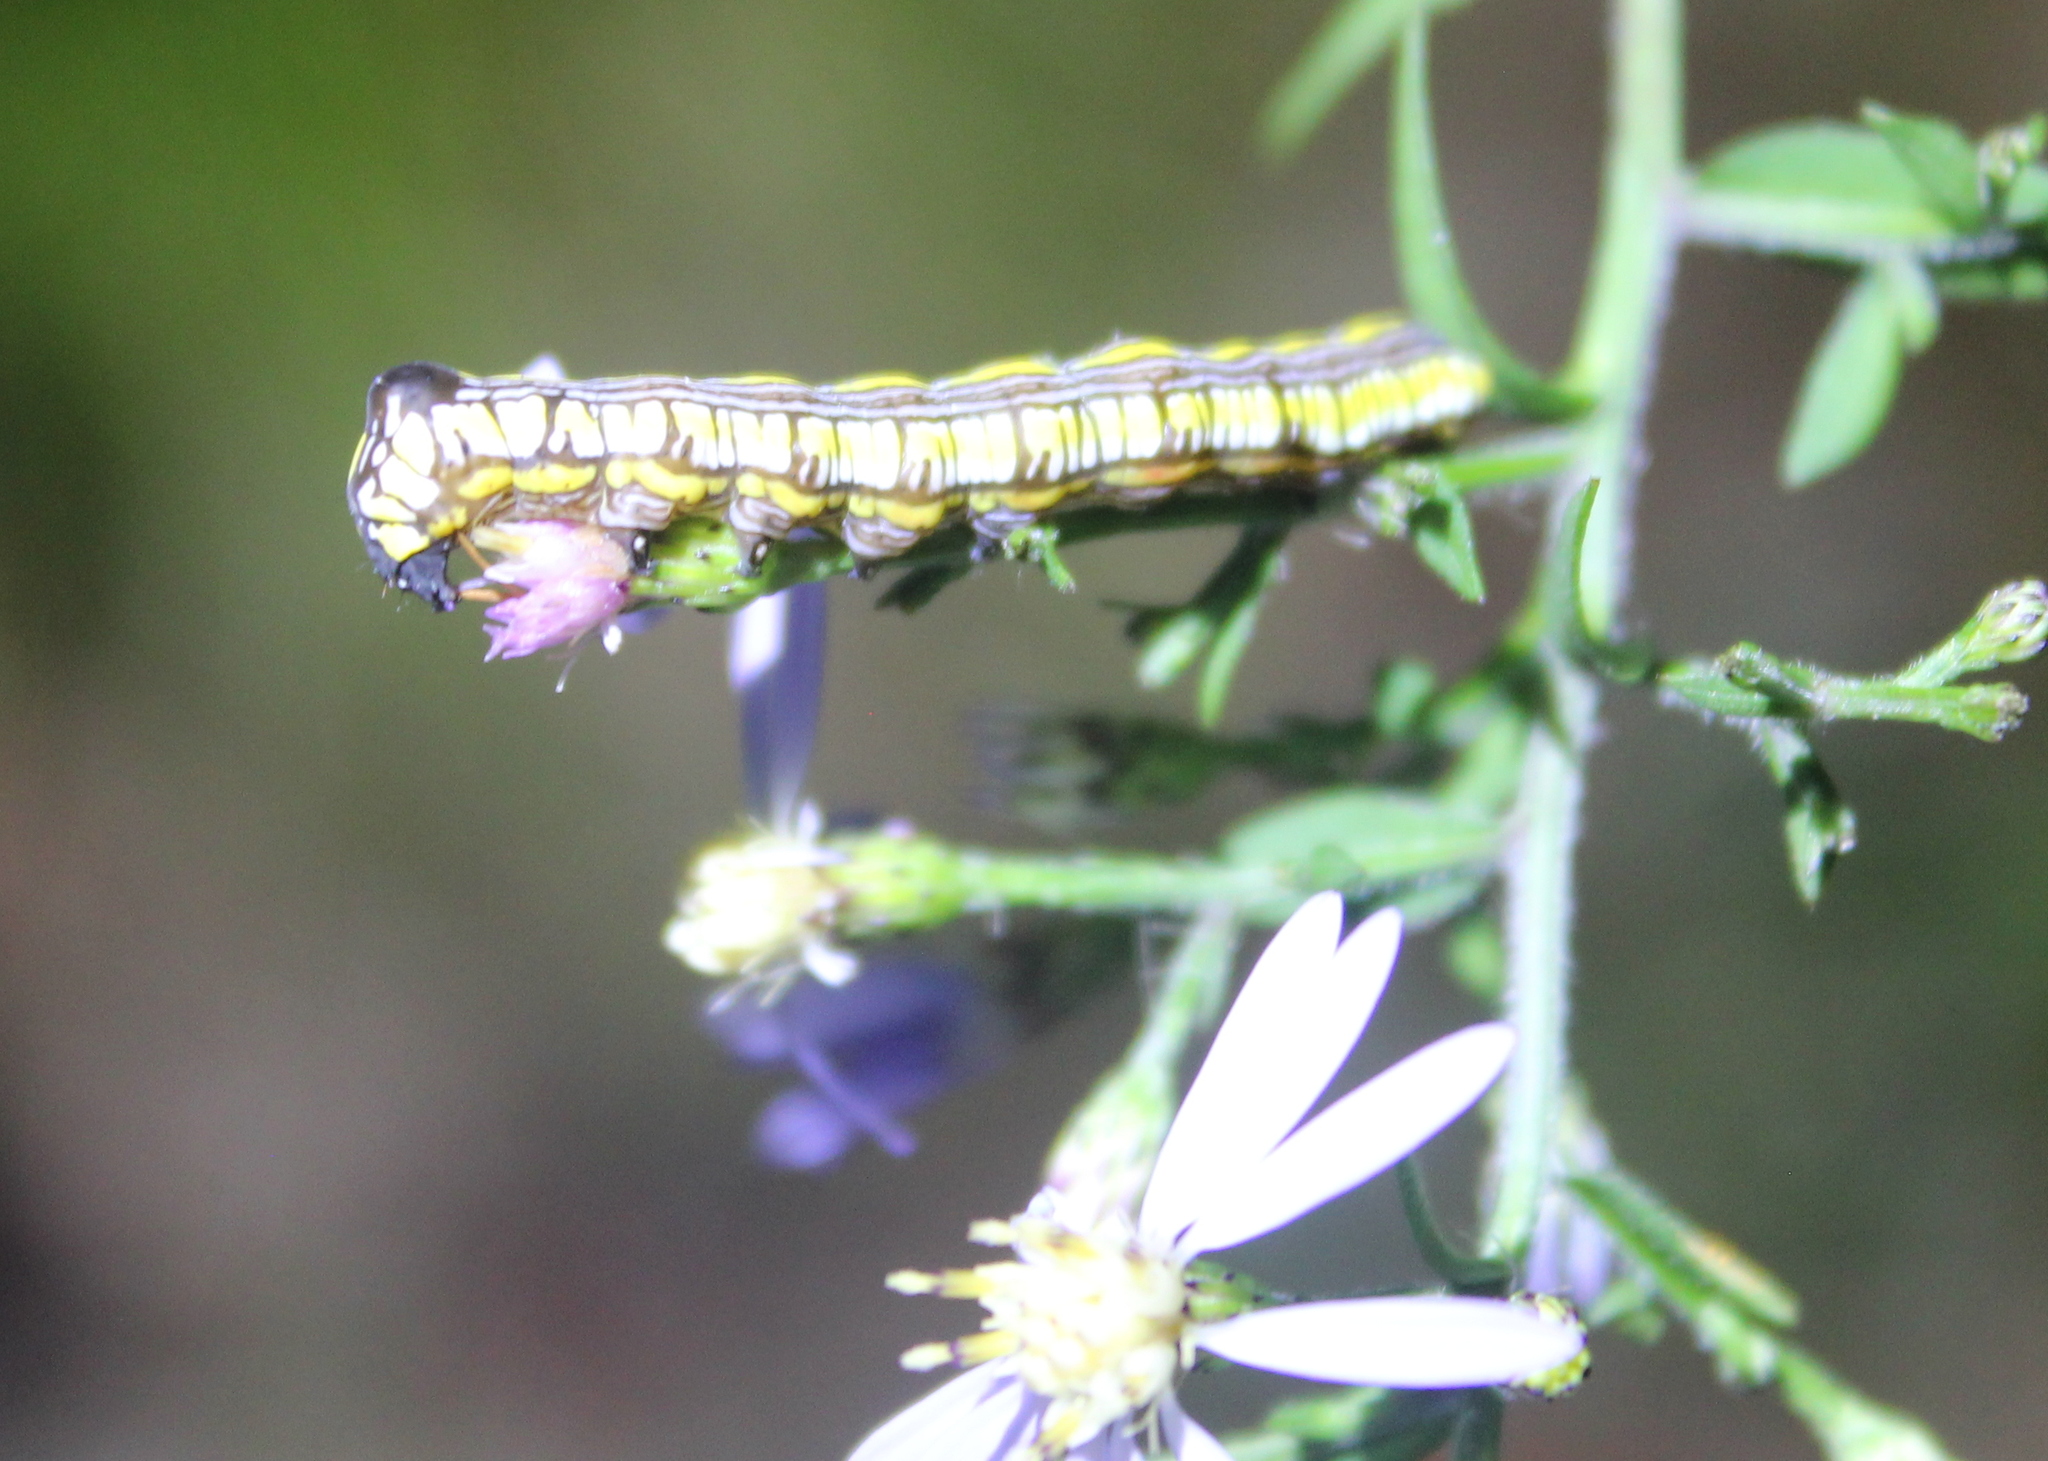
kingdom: Animalia
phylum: Arthropoda
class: Insecta
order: Lepidoptera
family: Noctuidae
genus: Cucullia
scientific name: Cucullia convexipennis
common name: Brown-hooded owlet
